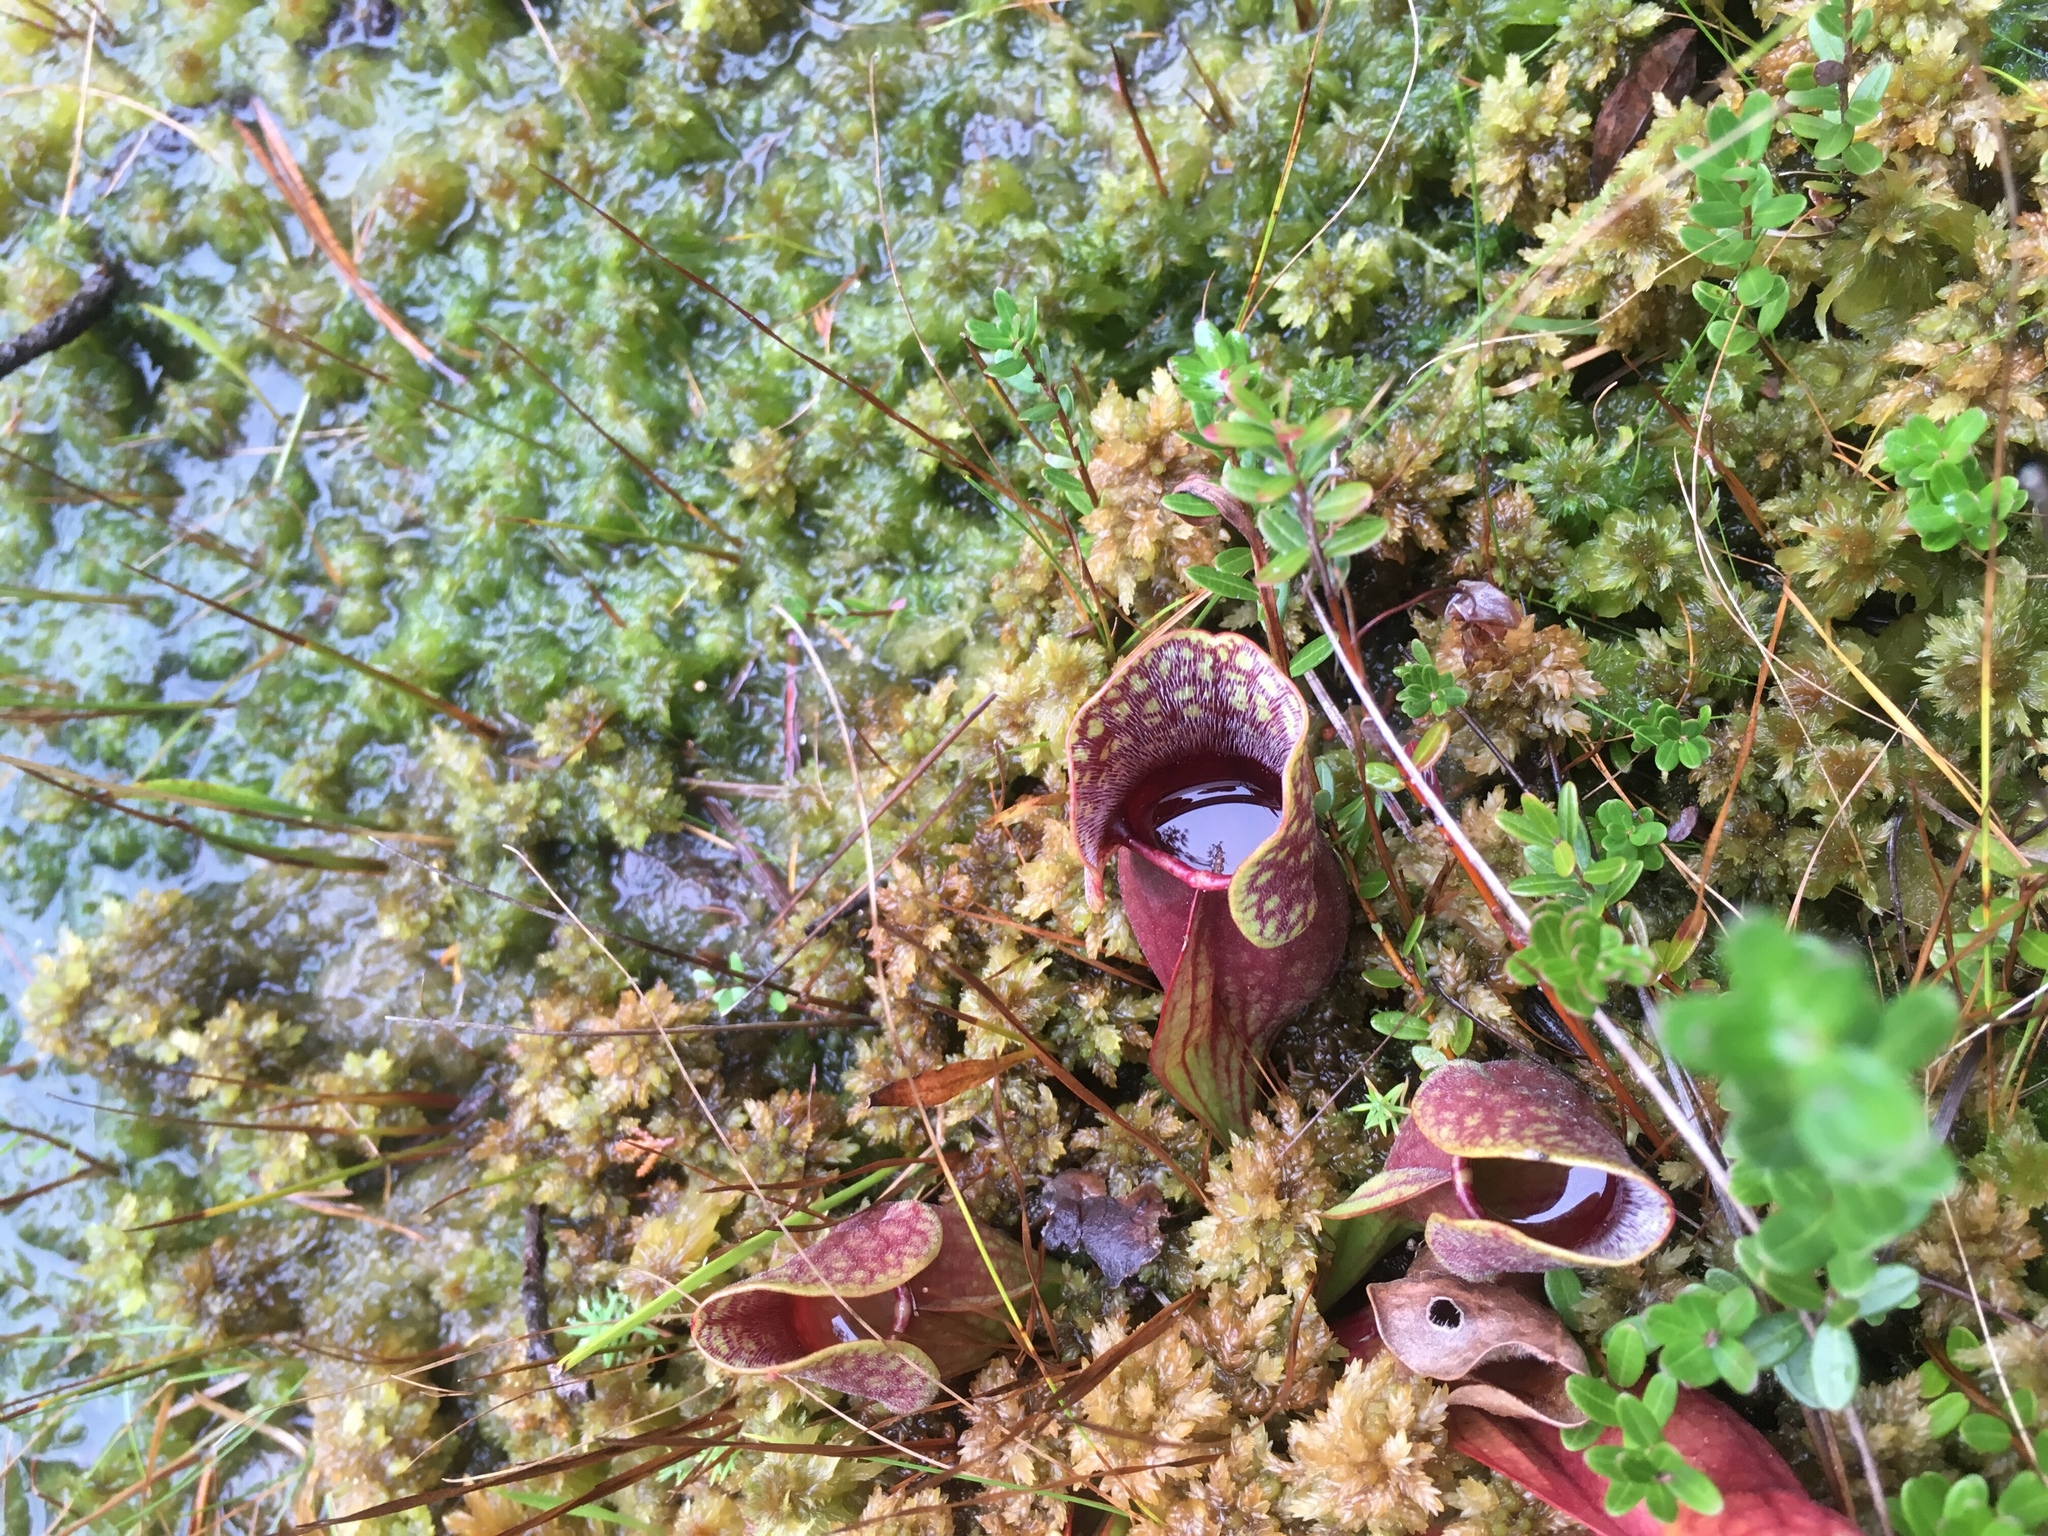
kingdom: Plantae
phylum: Tracheophyta
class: Magnoliopsida
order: Ericales
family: Sarraceniaceae
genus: Sarracenia
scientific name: Sarracenia purpurea
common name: Pitcherplant
